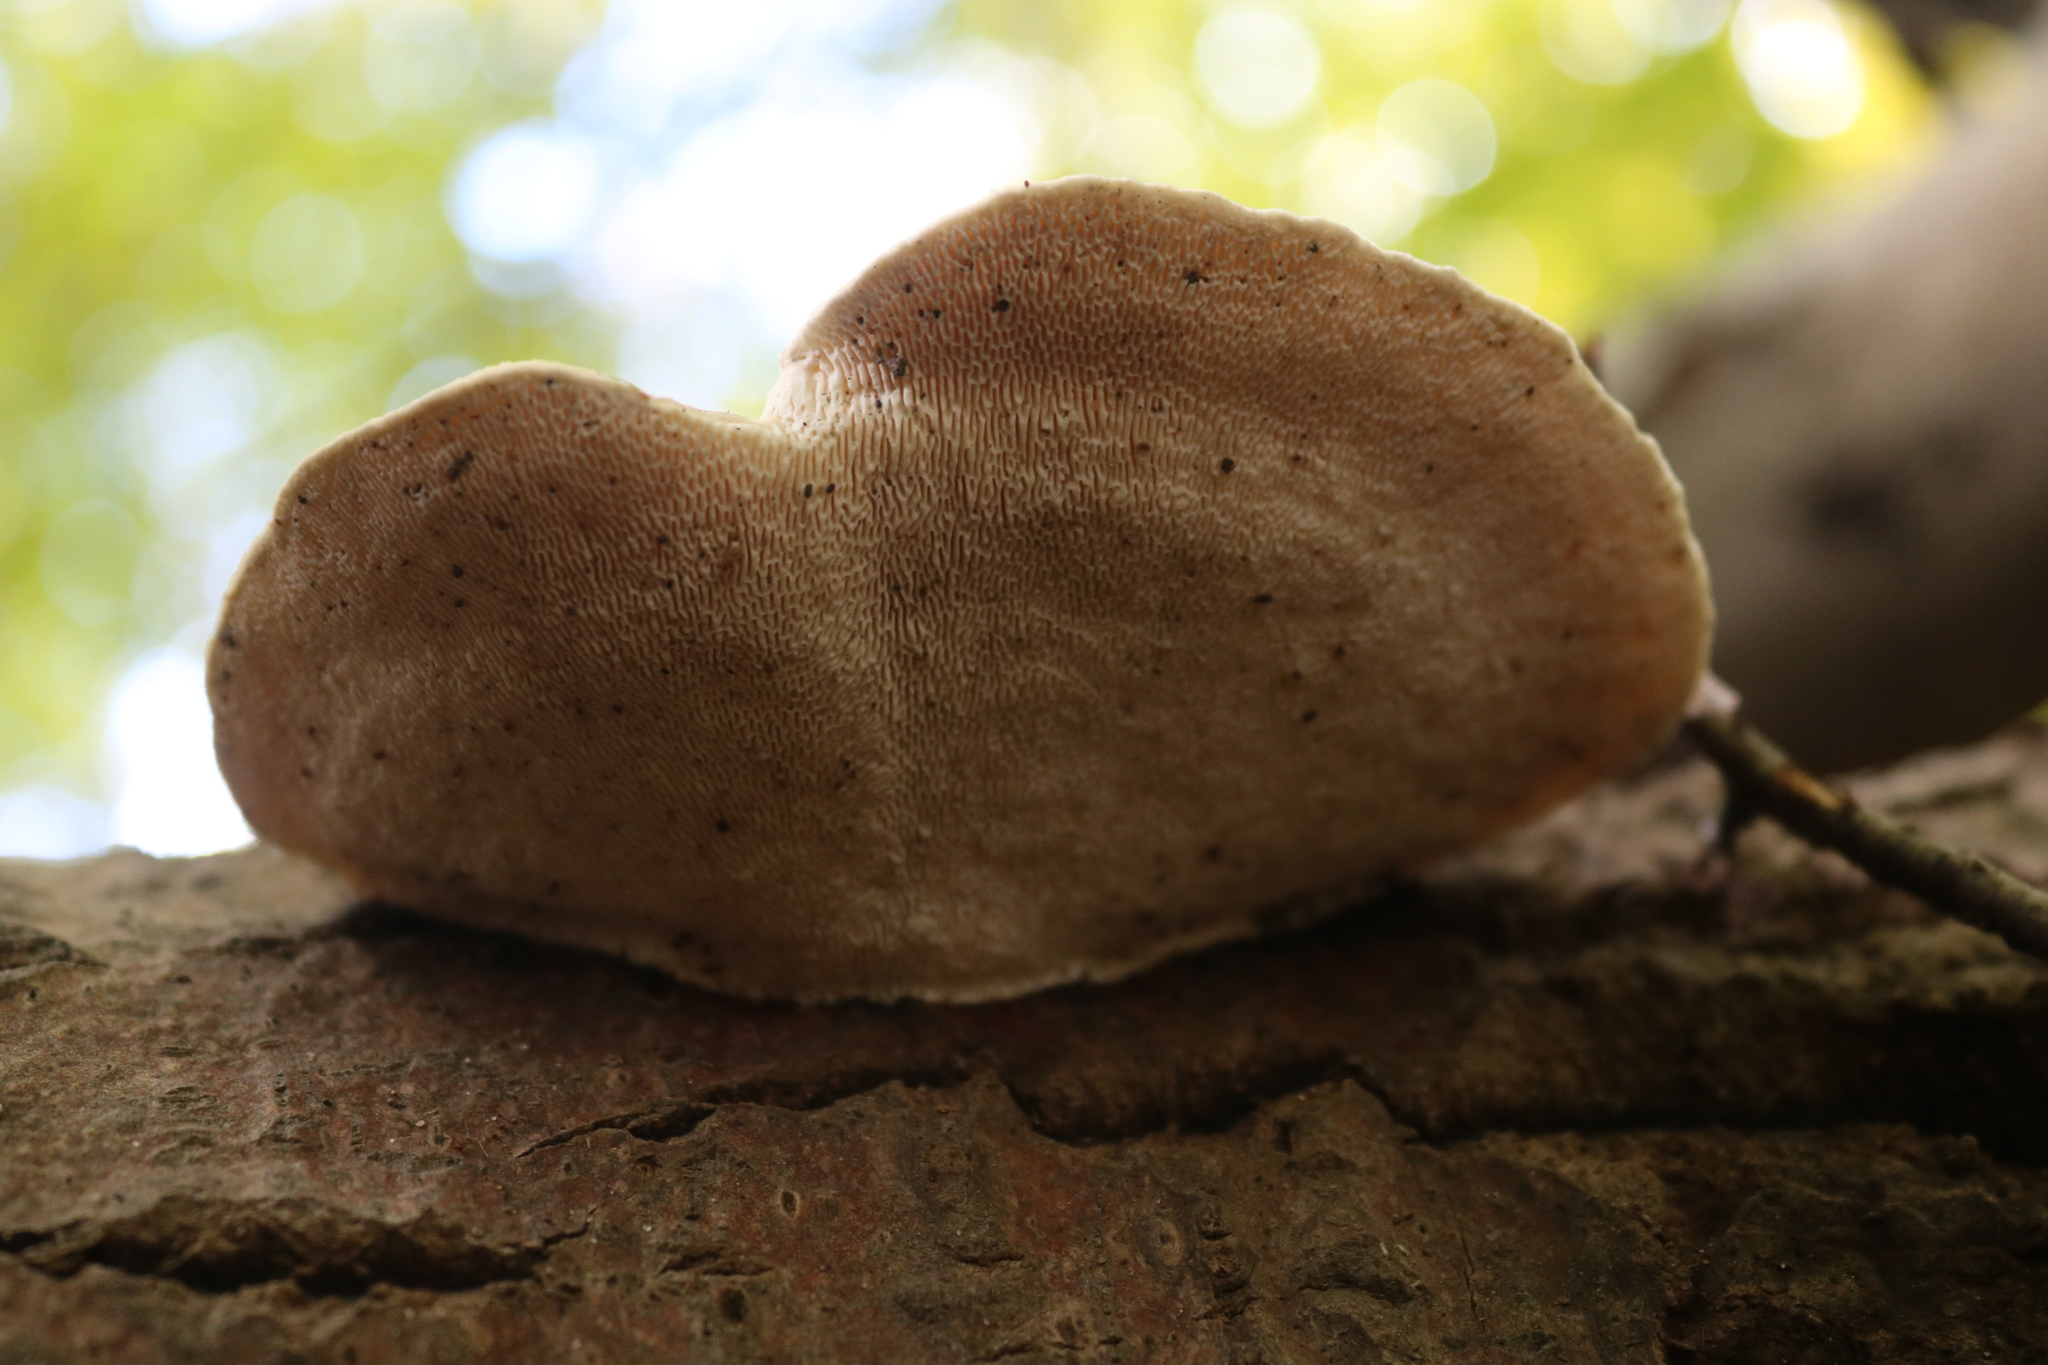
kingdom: Fungi
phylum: Basidiomycota
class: Agaricomycetes
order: Polyporales
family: Polyporaceae
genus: Trametes
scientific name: Trametes gibbosa
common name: Lumpy bracket
